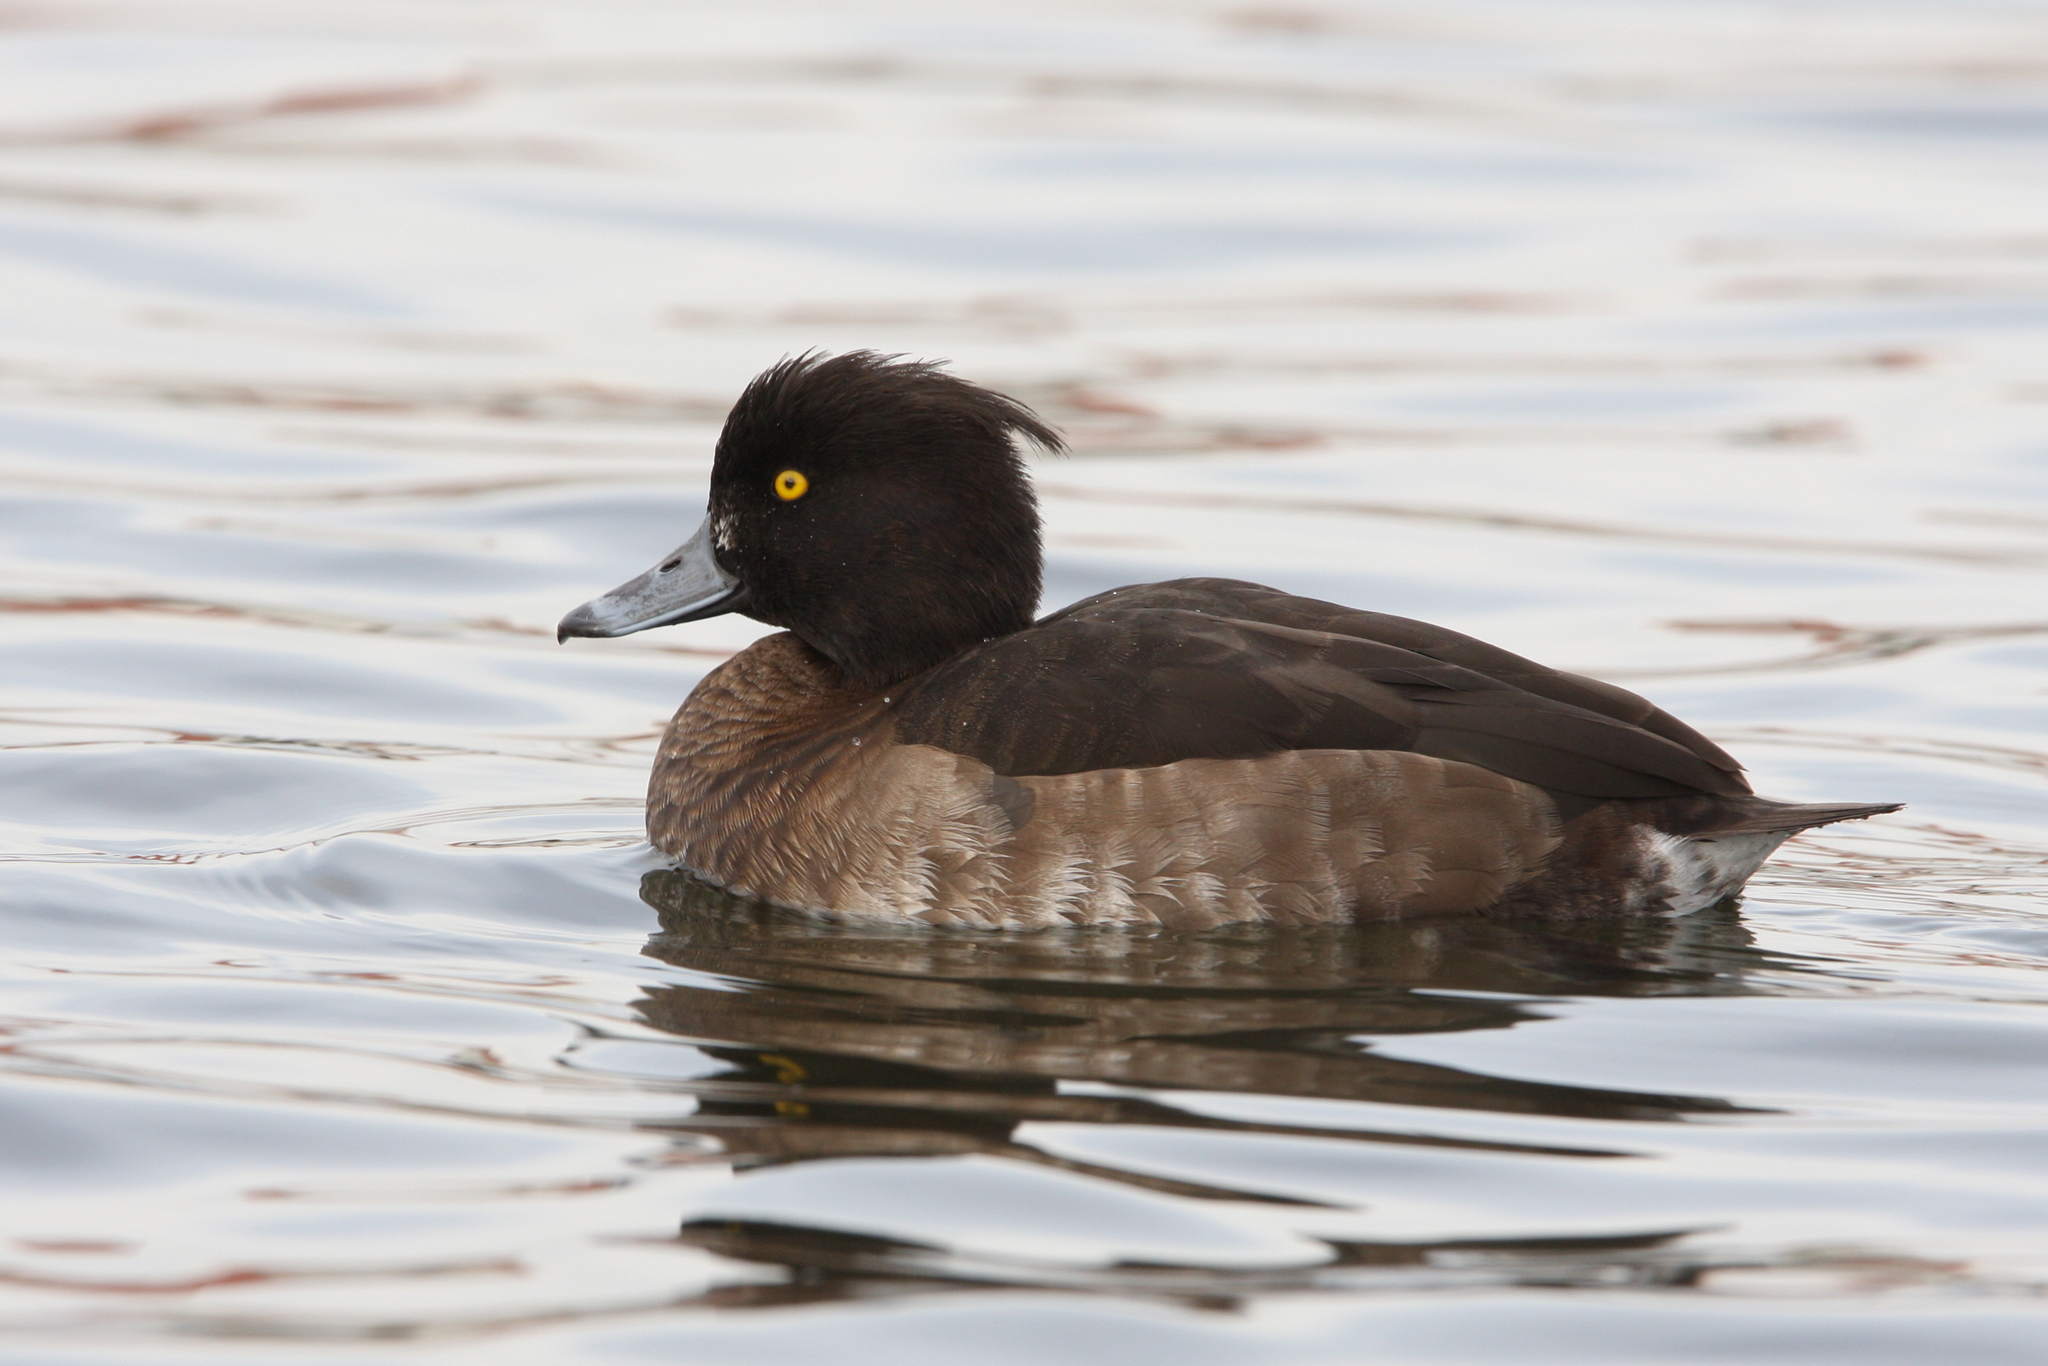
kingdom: Animalia
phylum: Chordata
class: Aves
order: Anseriformes
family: Anatidae
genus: Aythya
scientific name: Aythya fuligula
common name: Tufted duck
